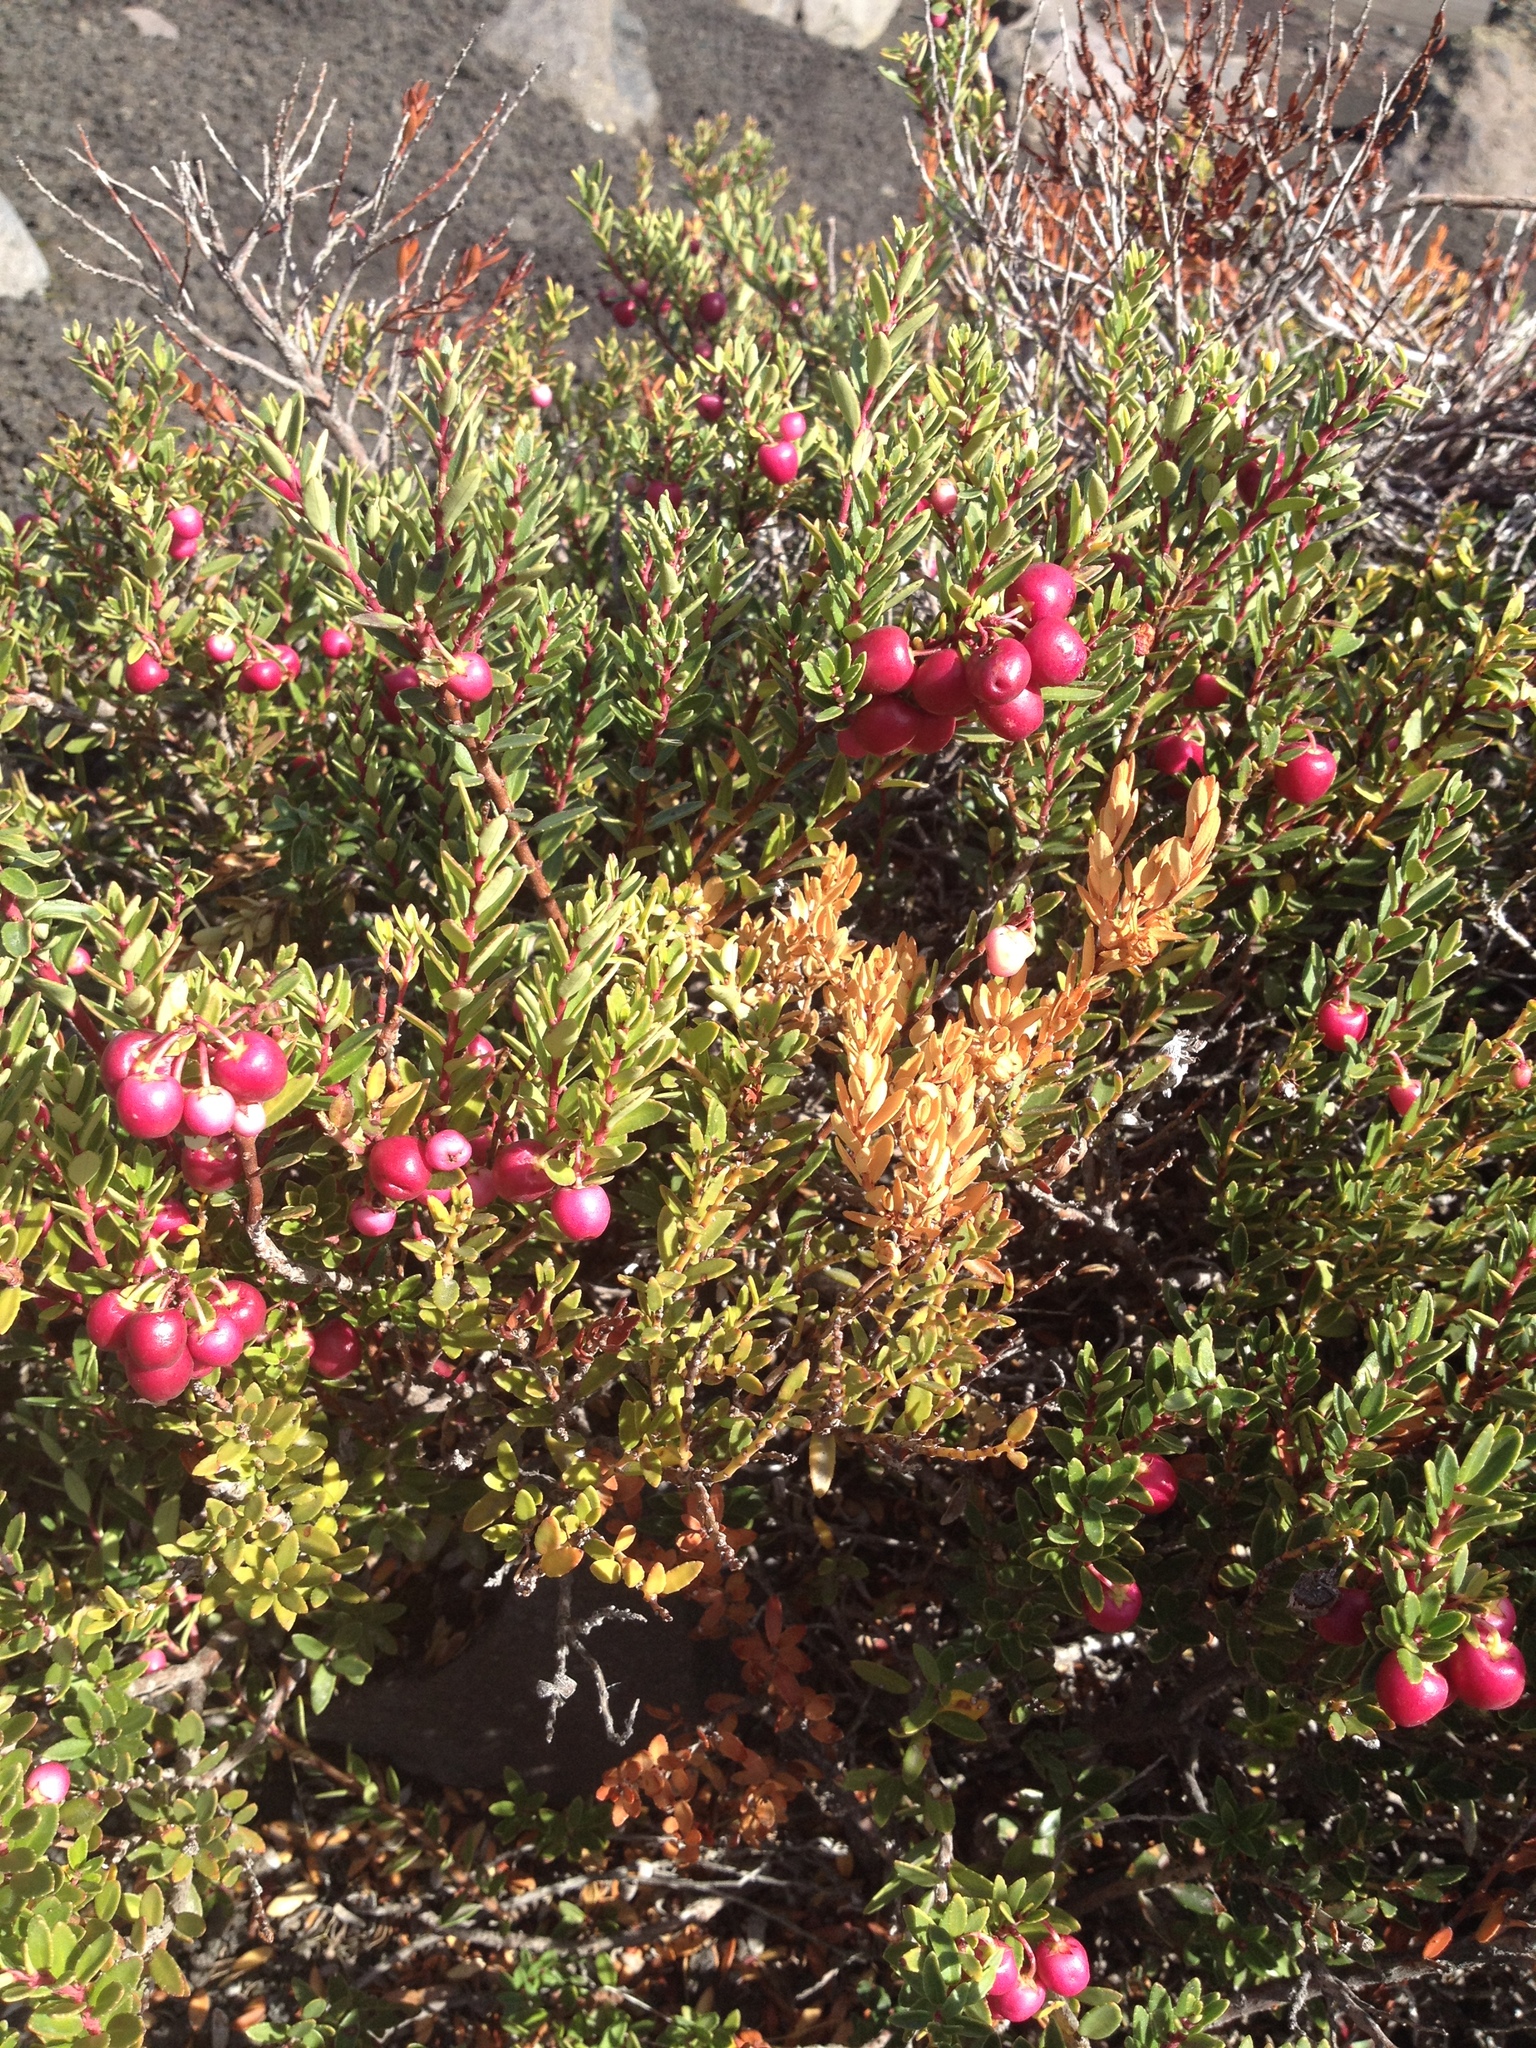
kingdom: Plantae
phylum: Tracheophyta
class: Magnoliopsida
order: Ericales
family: Ericaceae
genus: Gaultheria
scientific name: Gaultheria poeppigii
